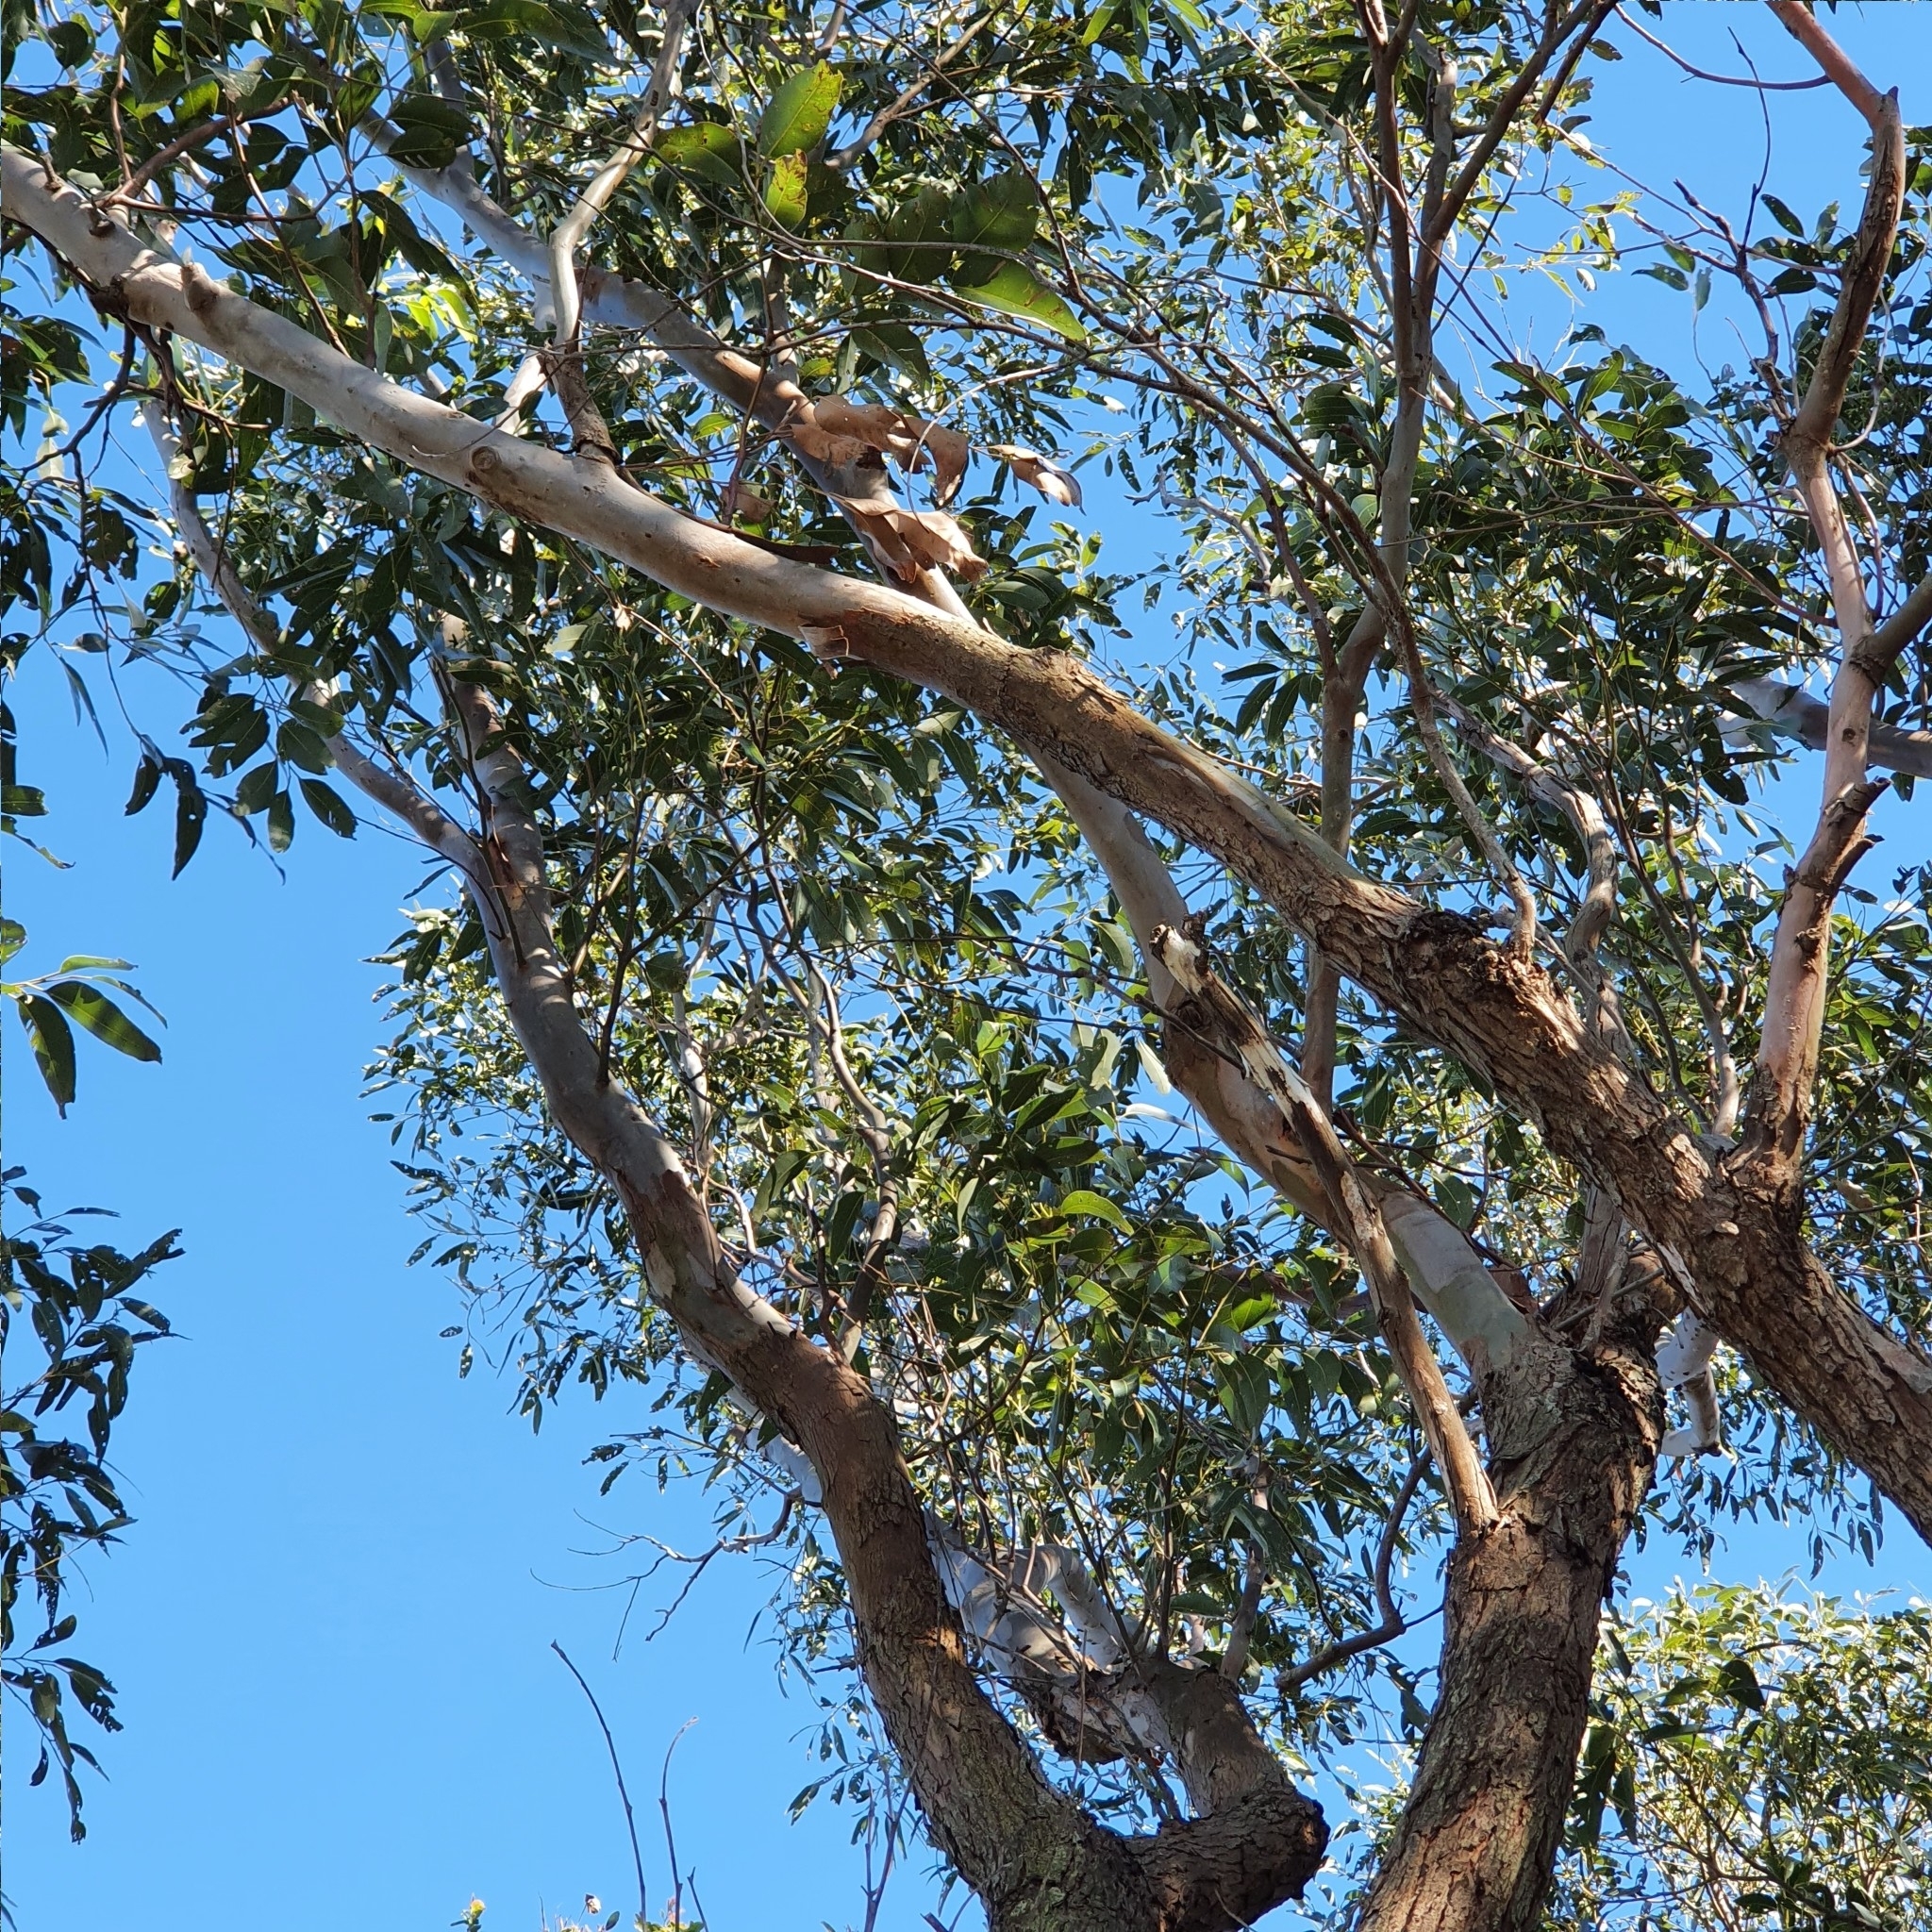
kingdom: Plantae
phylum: Tracheophyta
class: Magnoliopsida
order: Myrtales
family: Myrtaceae
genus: Eucalyptus
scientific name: Eucalyptus botryoides
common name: Bangalay
